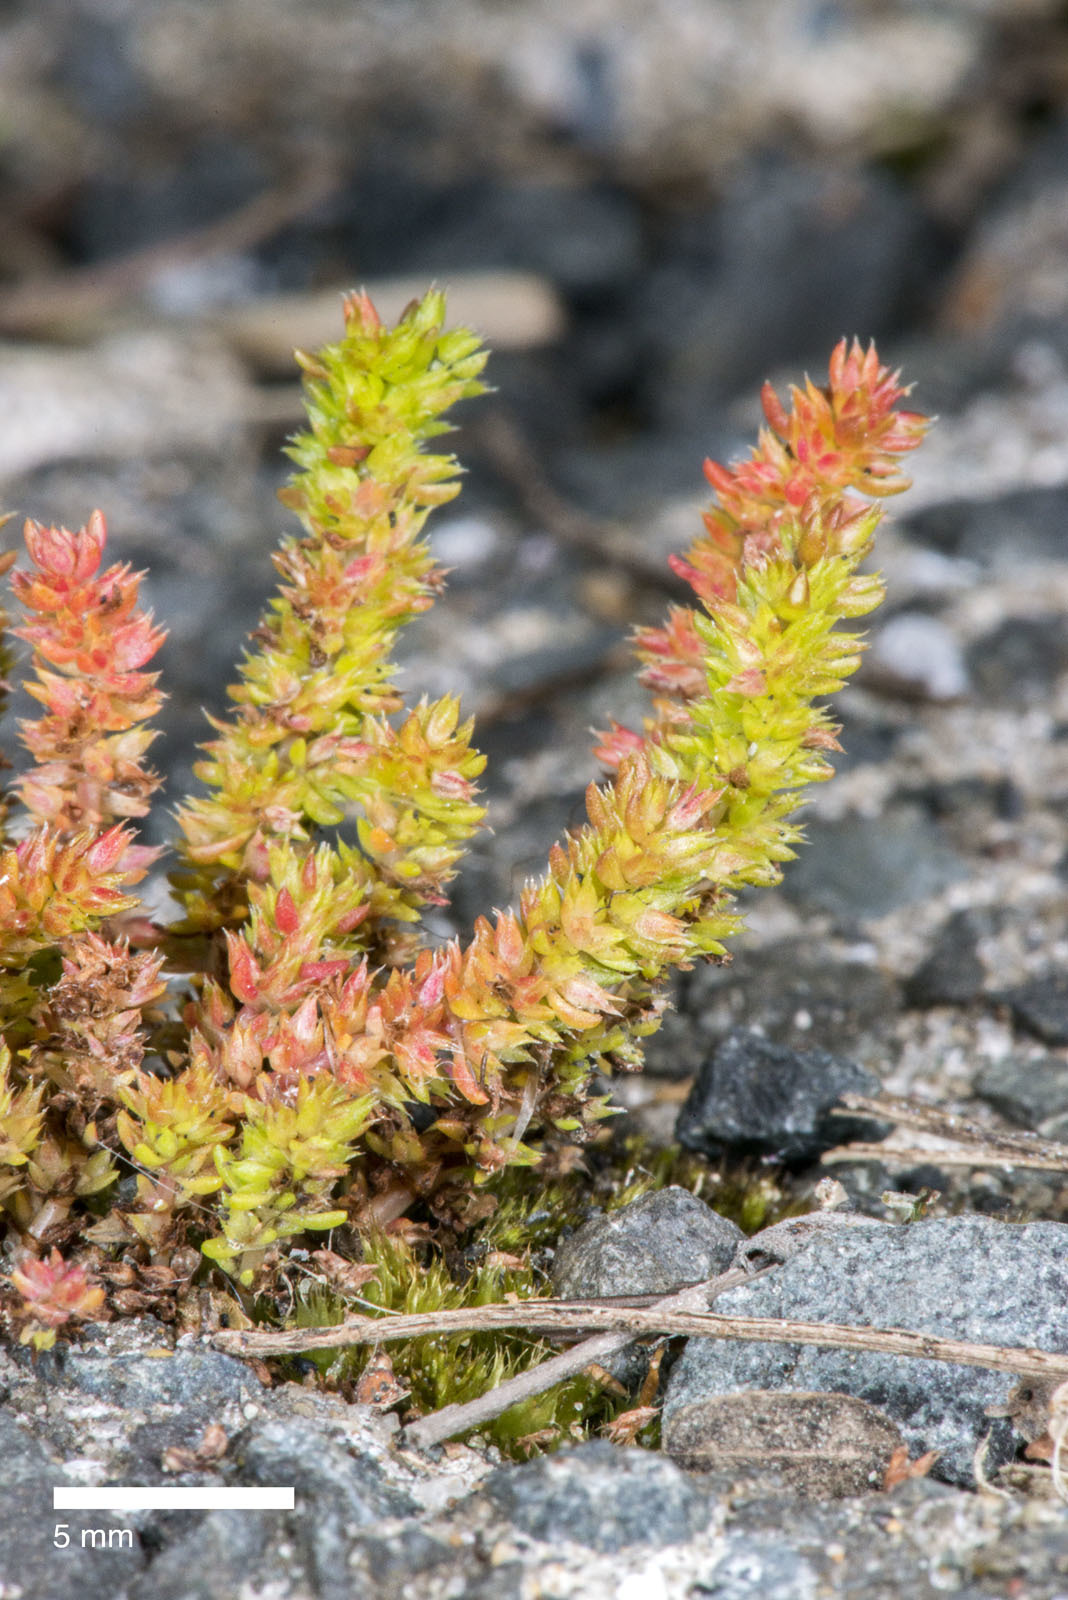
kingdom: Plantae
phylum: Tracheophyta
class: Magnoliopsida
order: Saxifragales
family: Crassulaceae
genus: Crassula
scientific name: Crassula alata
